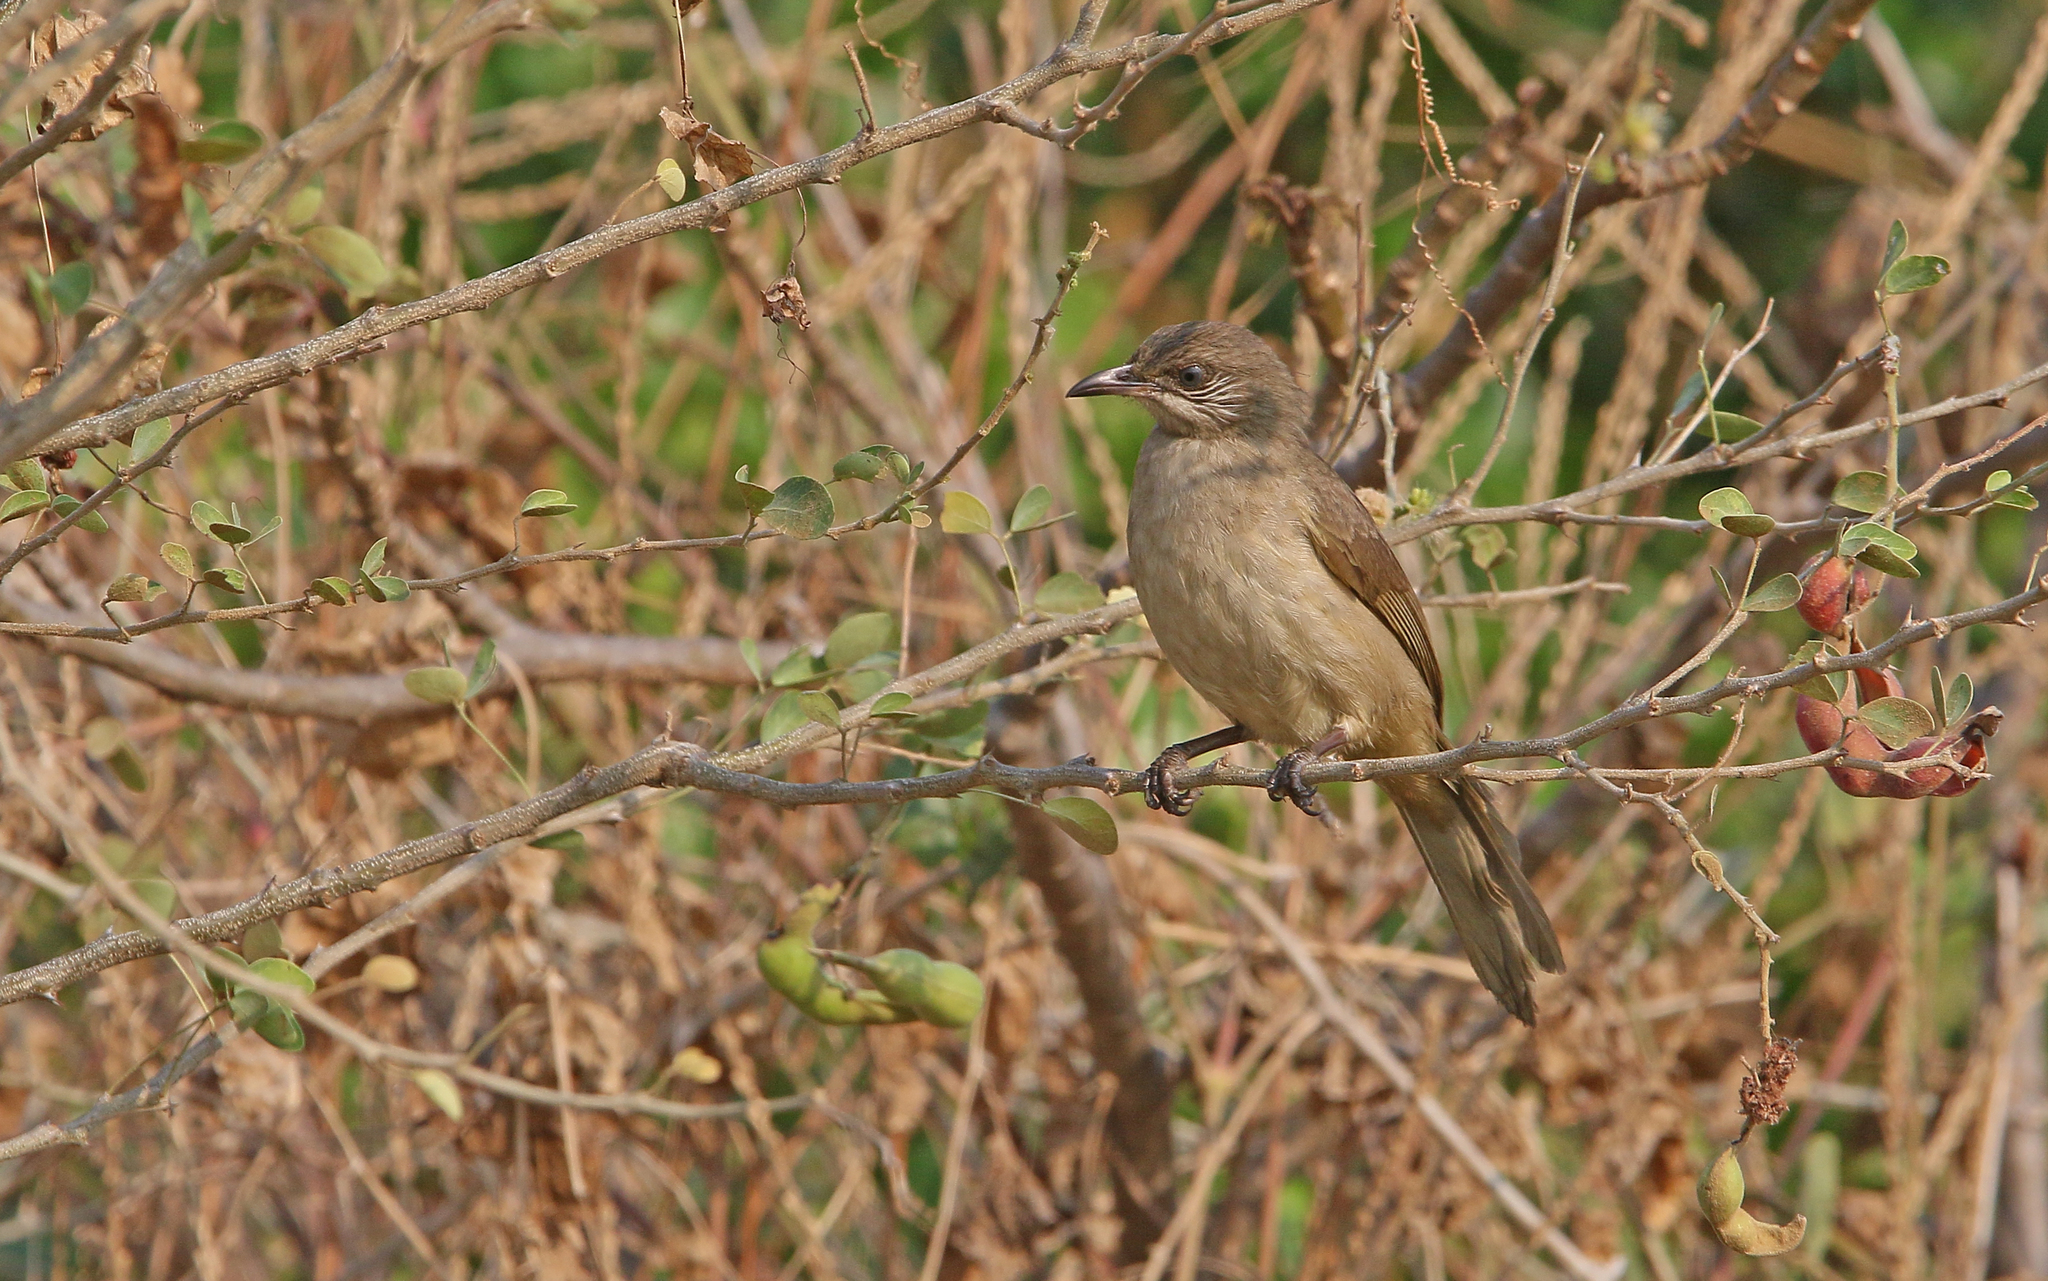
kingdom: Animalia
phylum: Chordata
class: Aves
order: Passeriformes
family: Pycnonotidae
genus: Pycnonotus
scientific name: Pycnonotus blanfordi
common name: Streak-eared bulbul
